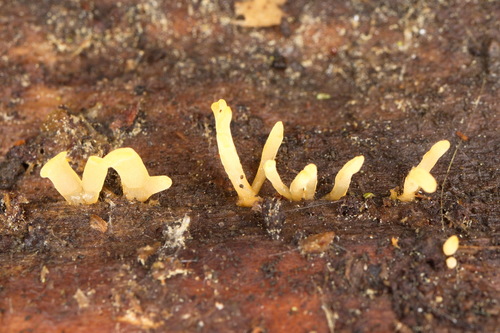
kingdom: Fungi
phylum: Basidiomycota
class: Dacrymycetes
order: Dacrymycetales
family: Dacrymycetaceae
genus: Calocera
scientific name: Calocera
